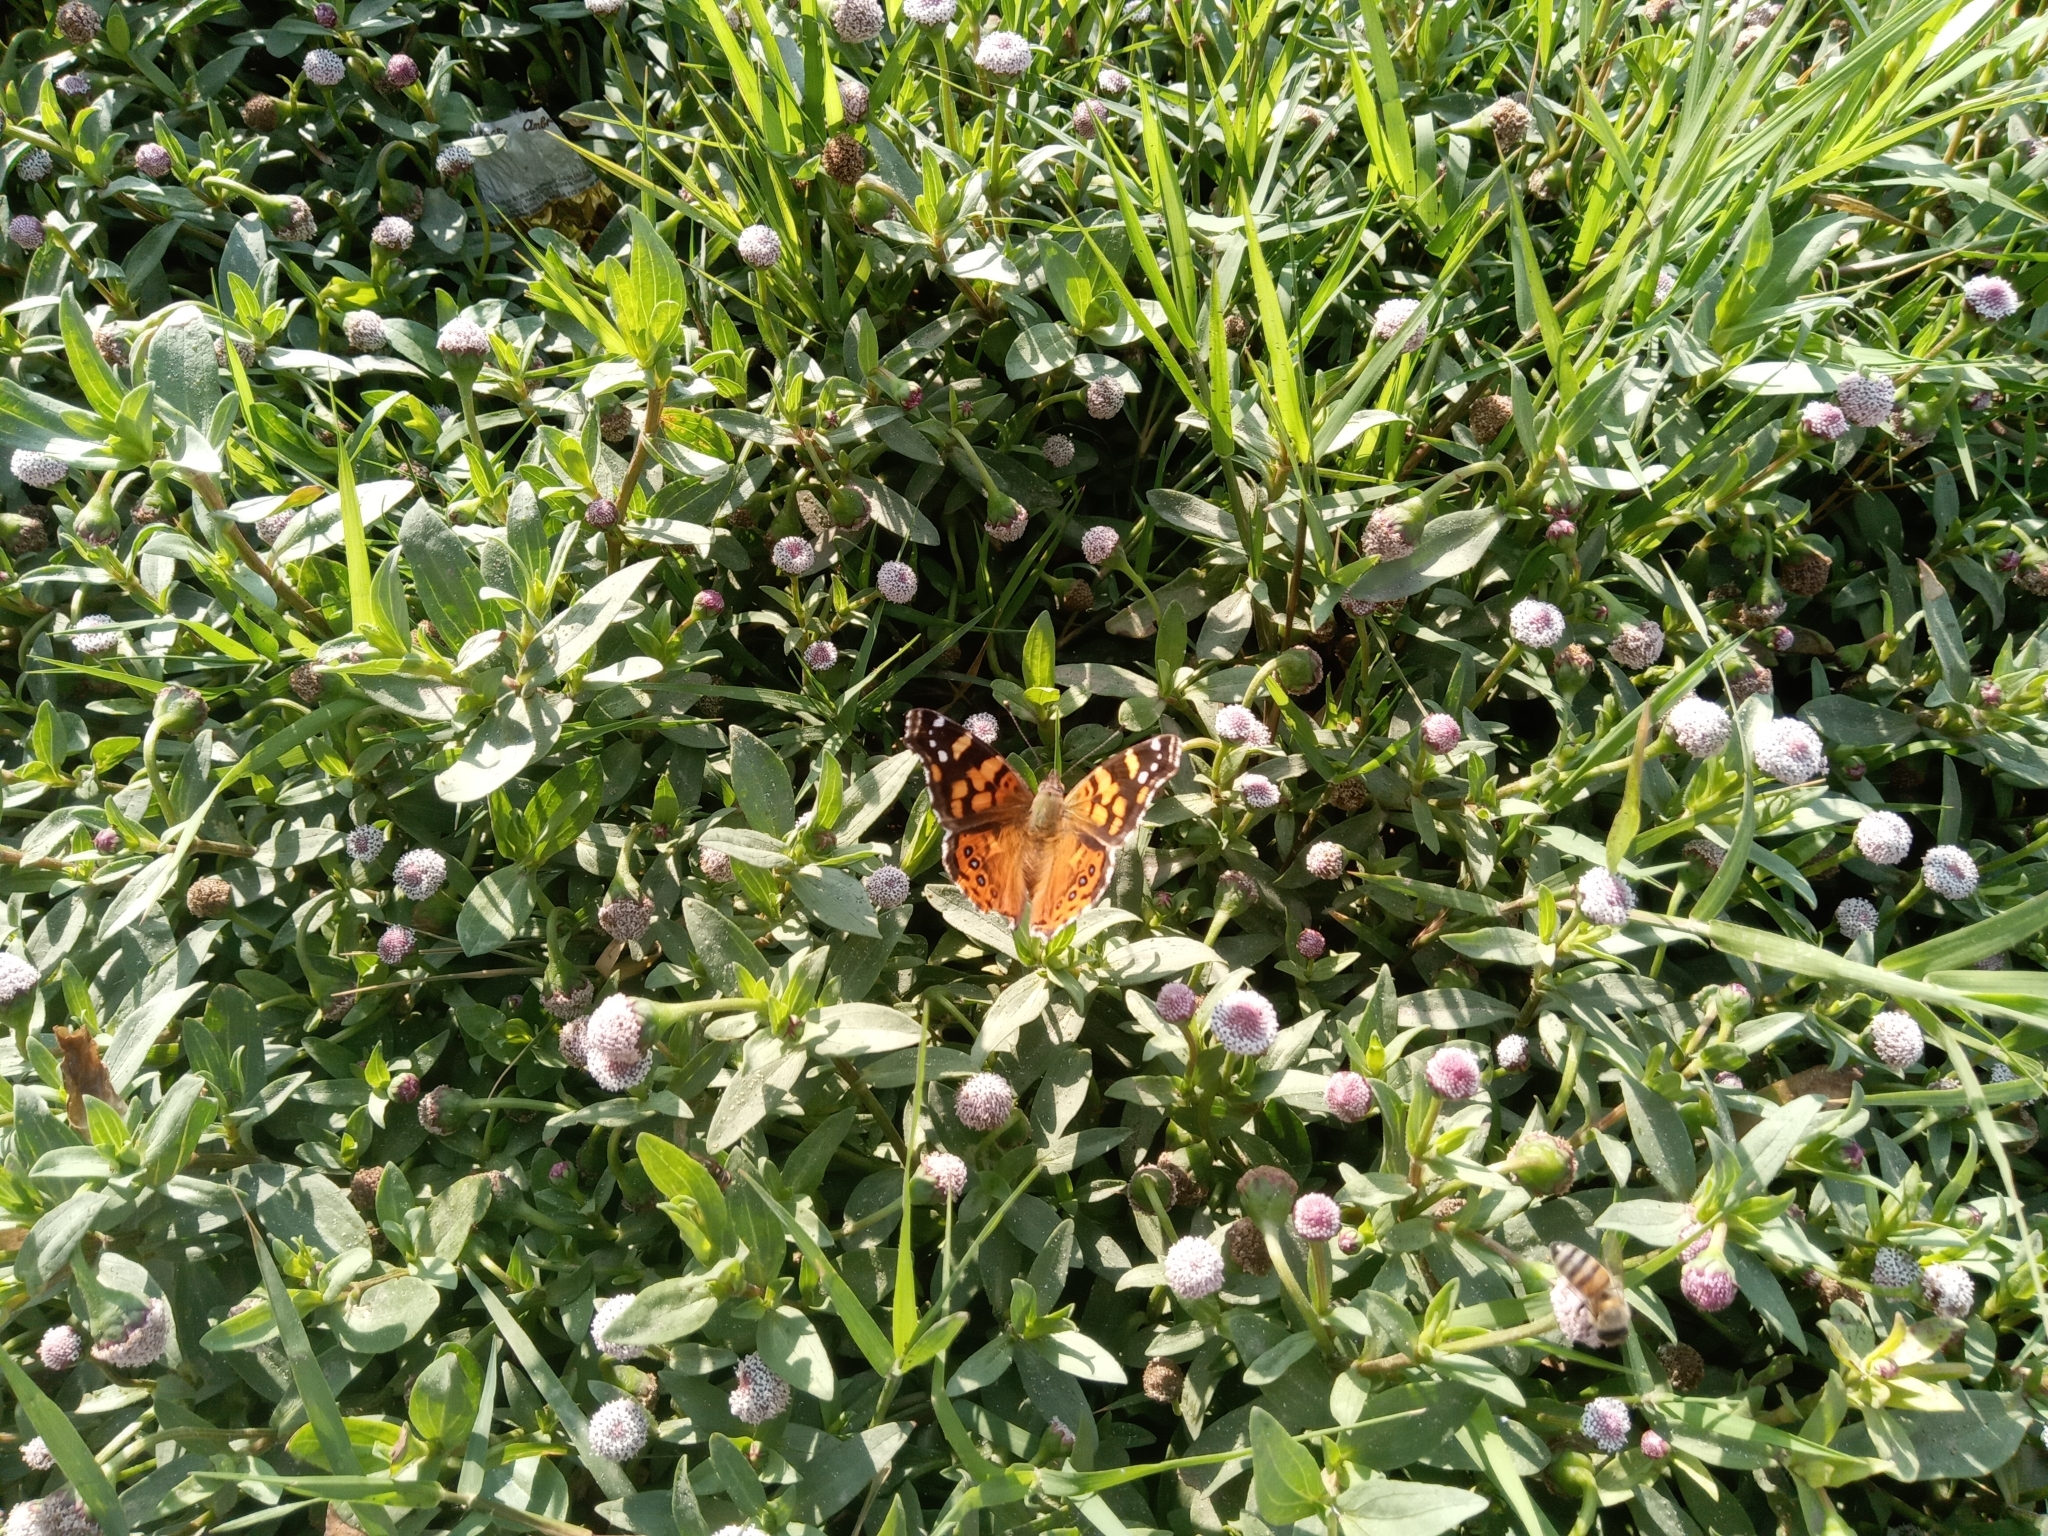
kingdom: Animalia
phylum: Arthropoda
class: Insecta
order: Lepidoptera
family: Nymphalidae
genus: Vanessa
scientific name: Vanessa carye
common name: Subtropical lady
